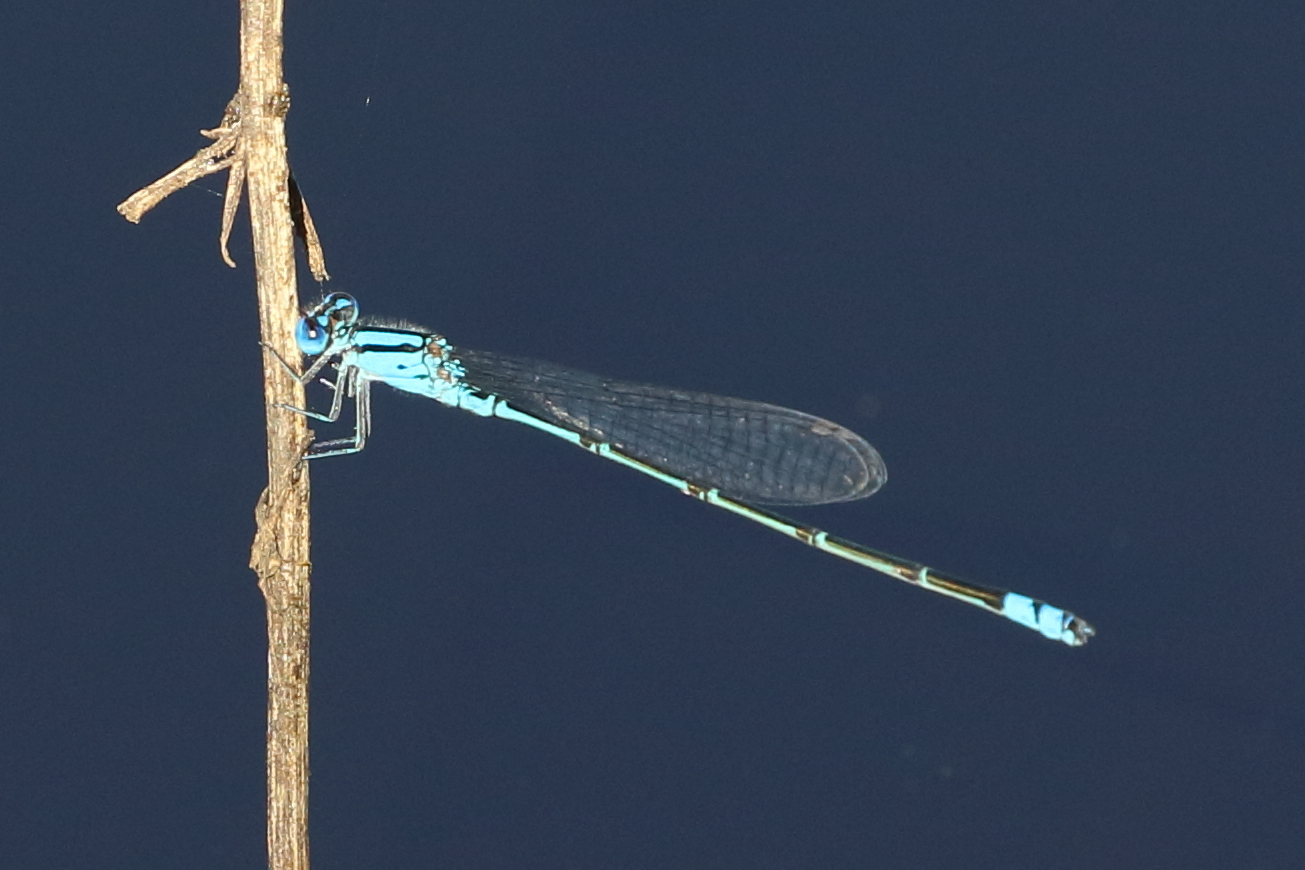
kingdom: Animalia
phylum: Arthropoda
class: Insecta
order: Odonata
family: Coenagrionidae
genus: Pseudagrion
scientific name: Pseudagrion microcephalum
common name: Blue riverdamsel
